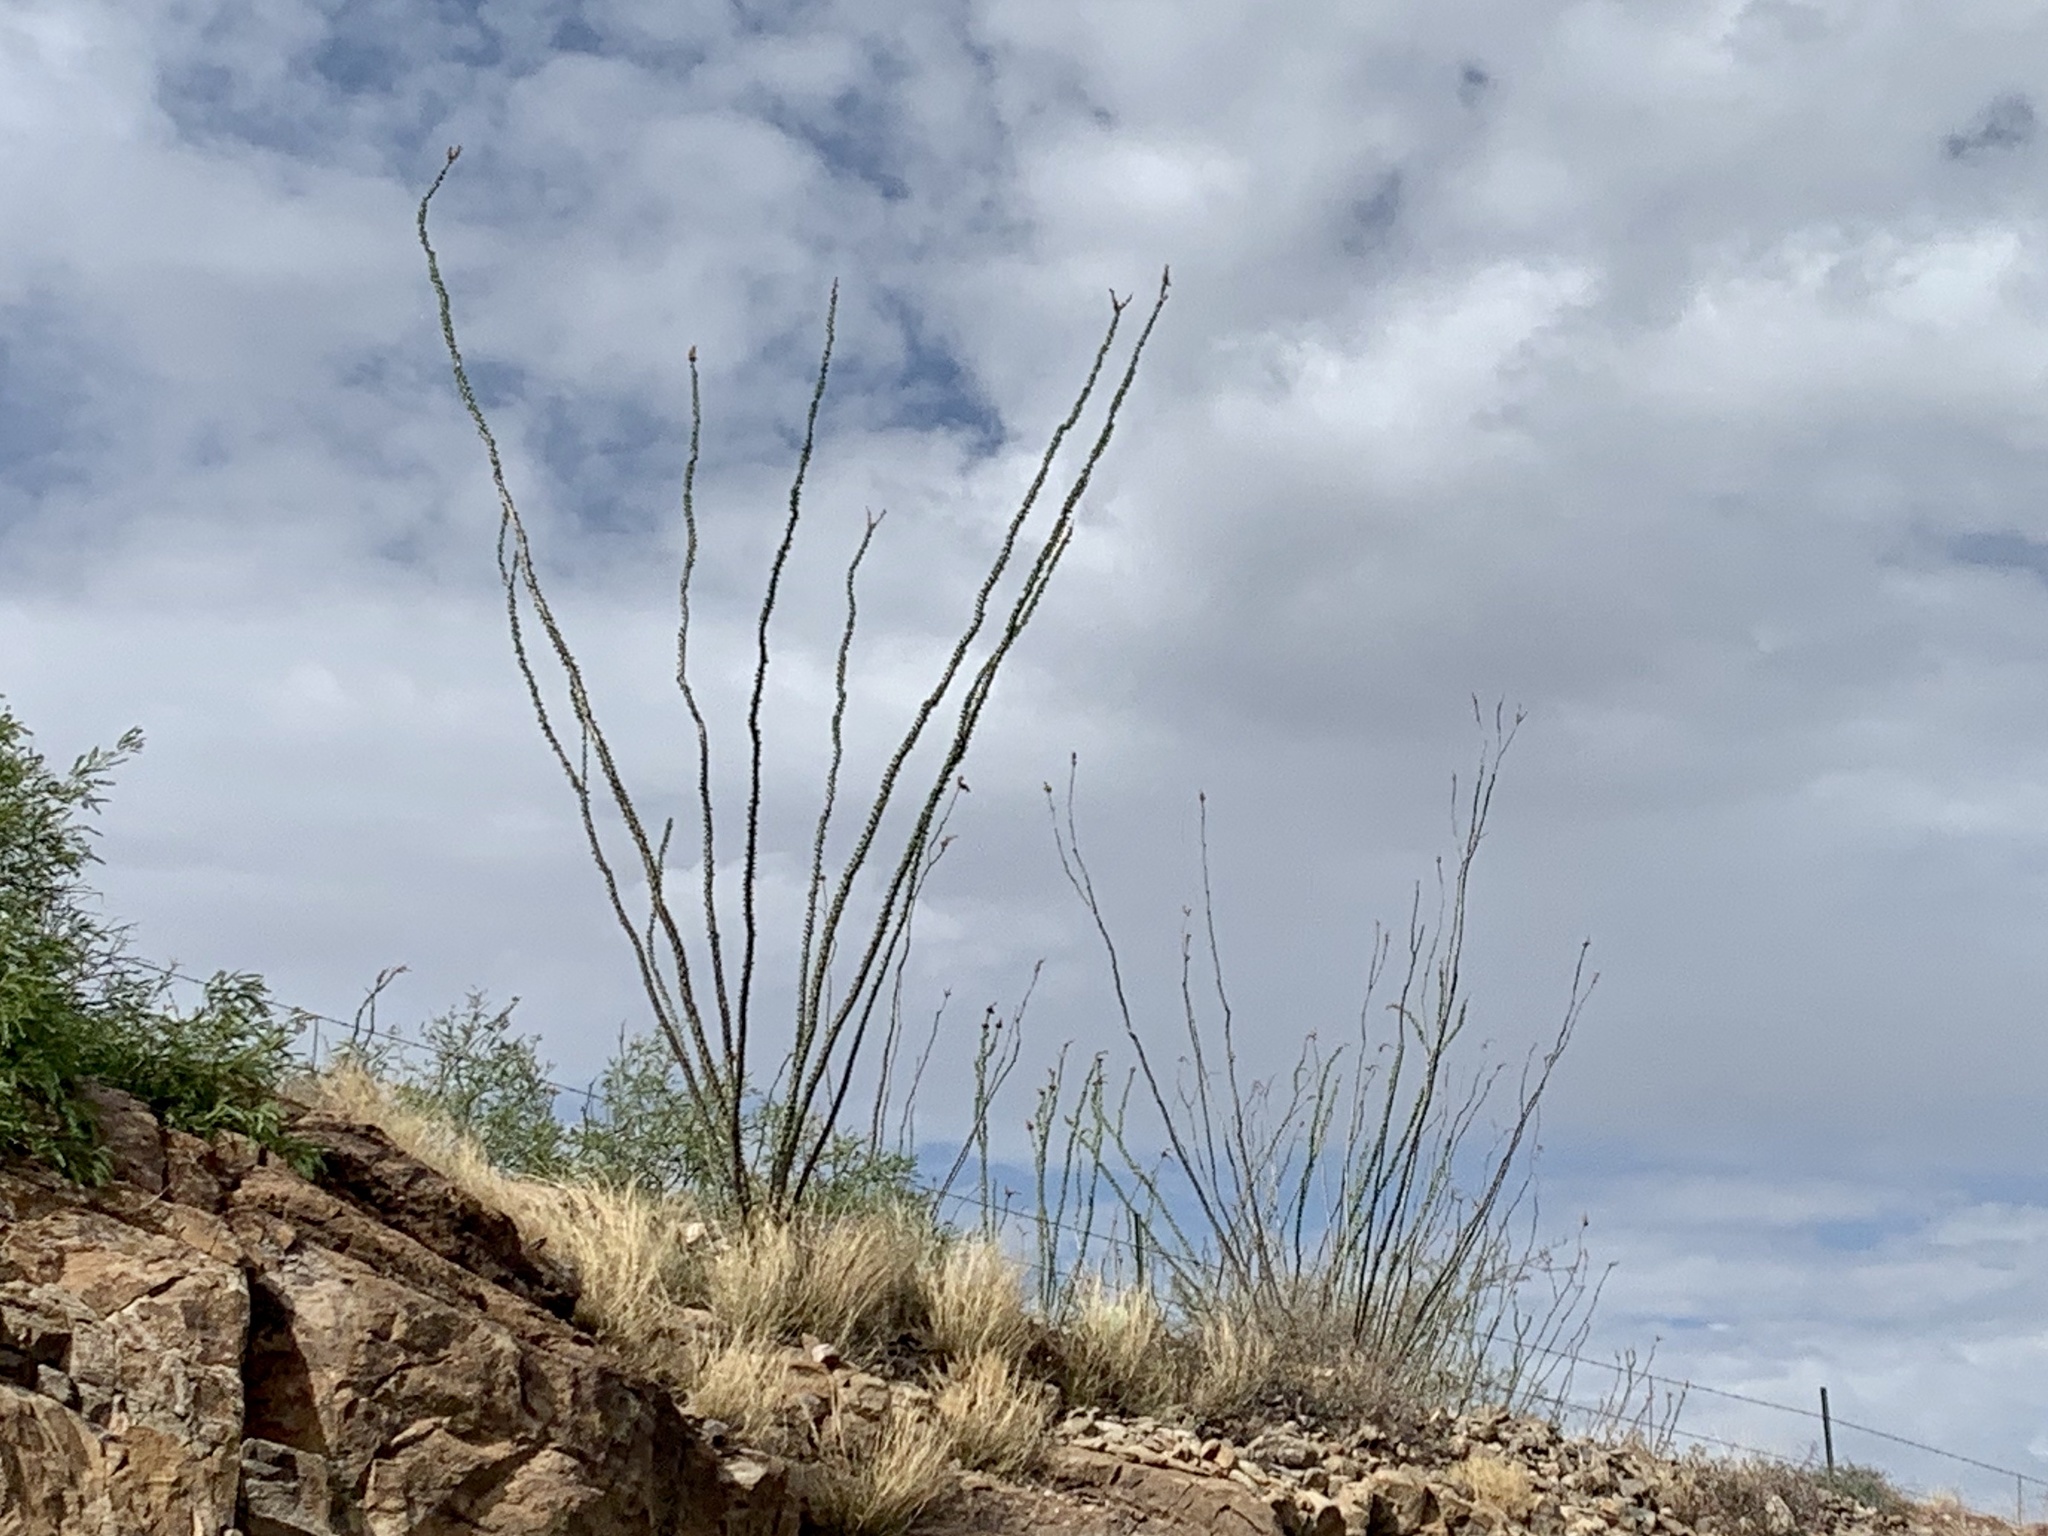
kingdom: Plantae
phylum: Tracheophyta
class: Magnoliopsida
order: Ericales
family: Fouquieriaceae
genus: Fouquieria
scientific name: Fouquieria splendens
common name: Vine-cactus
